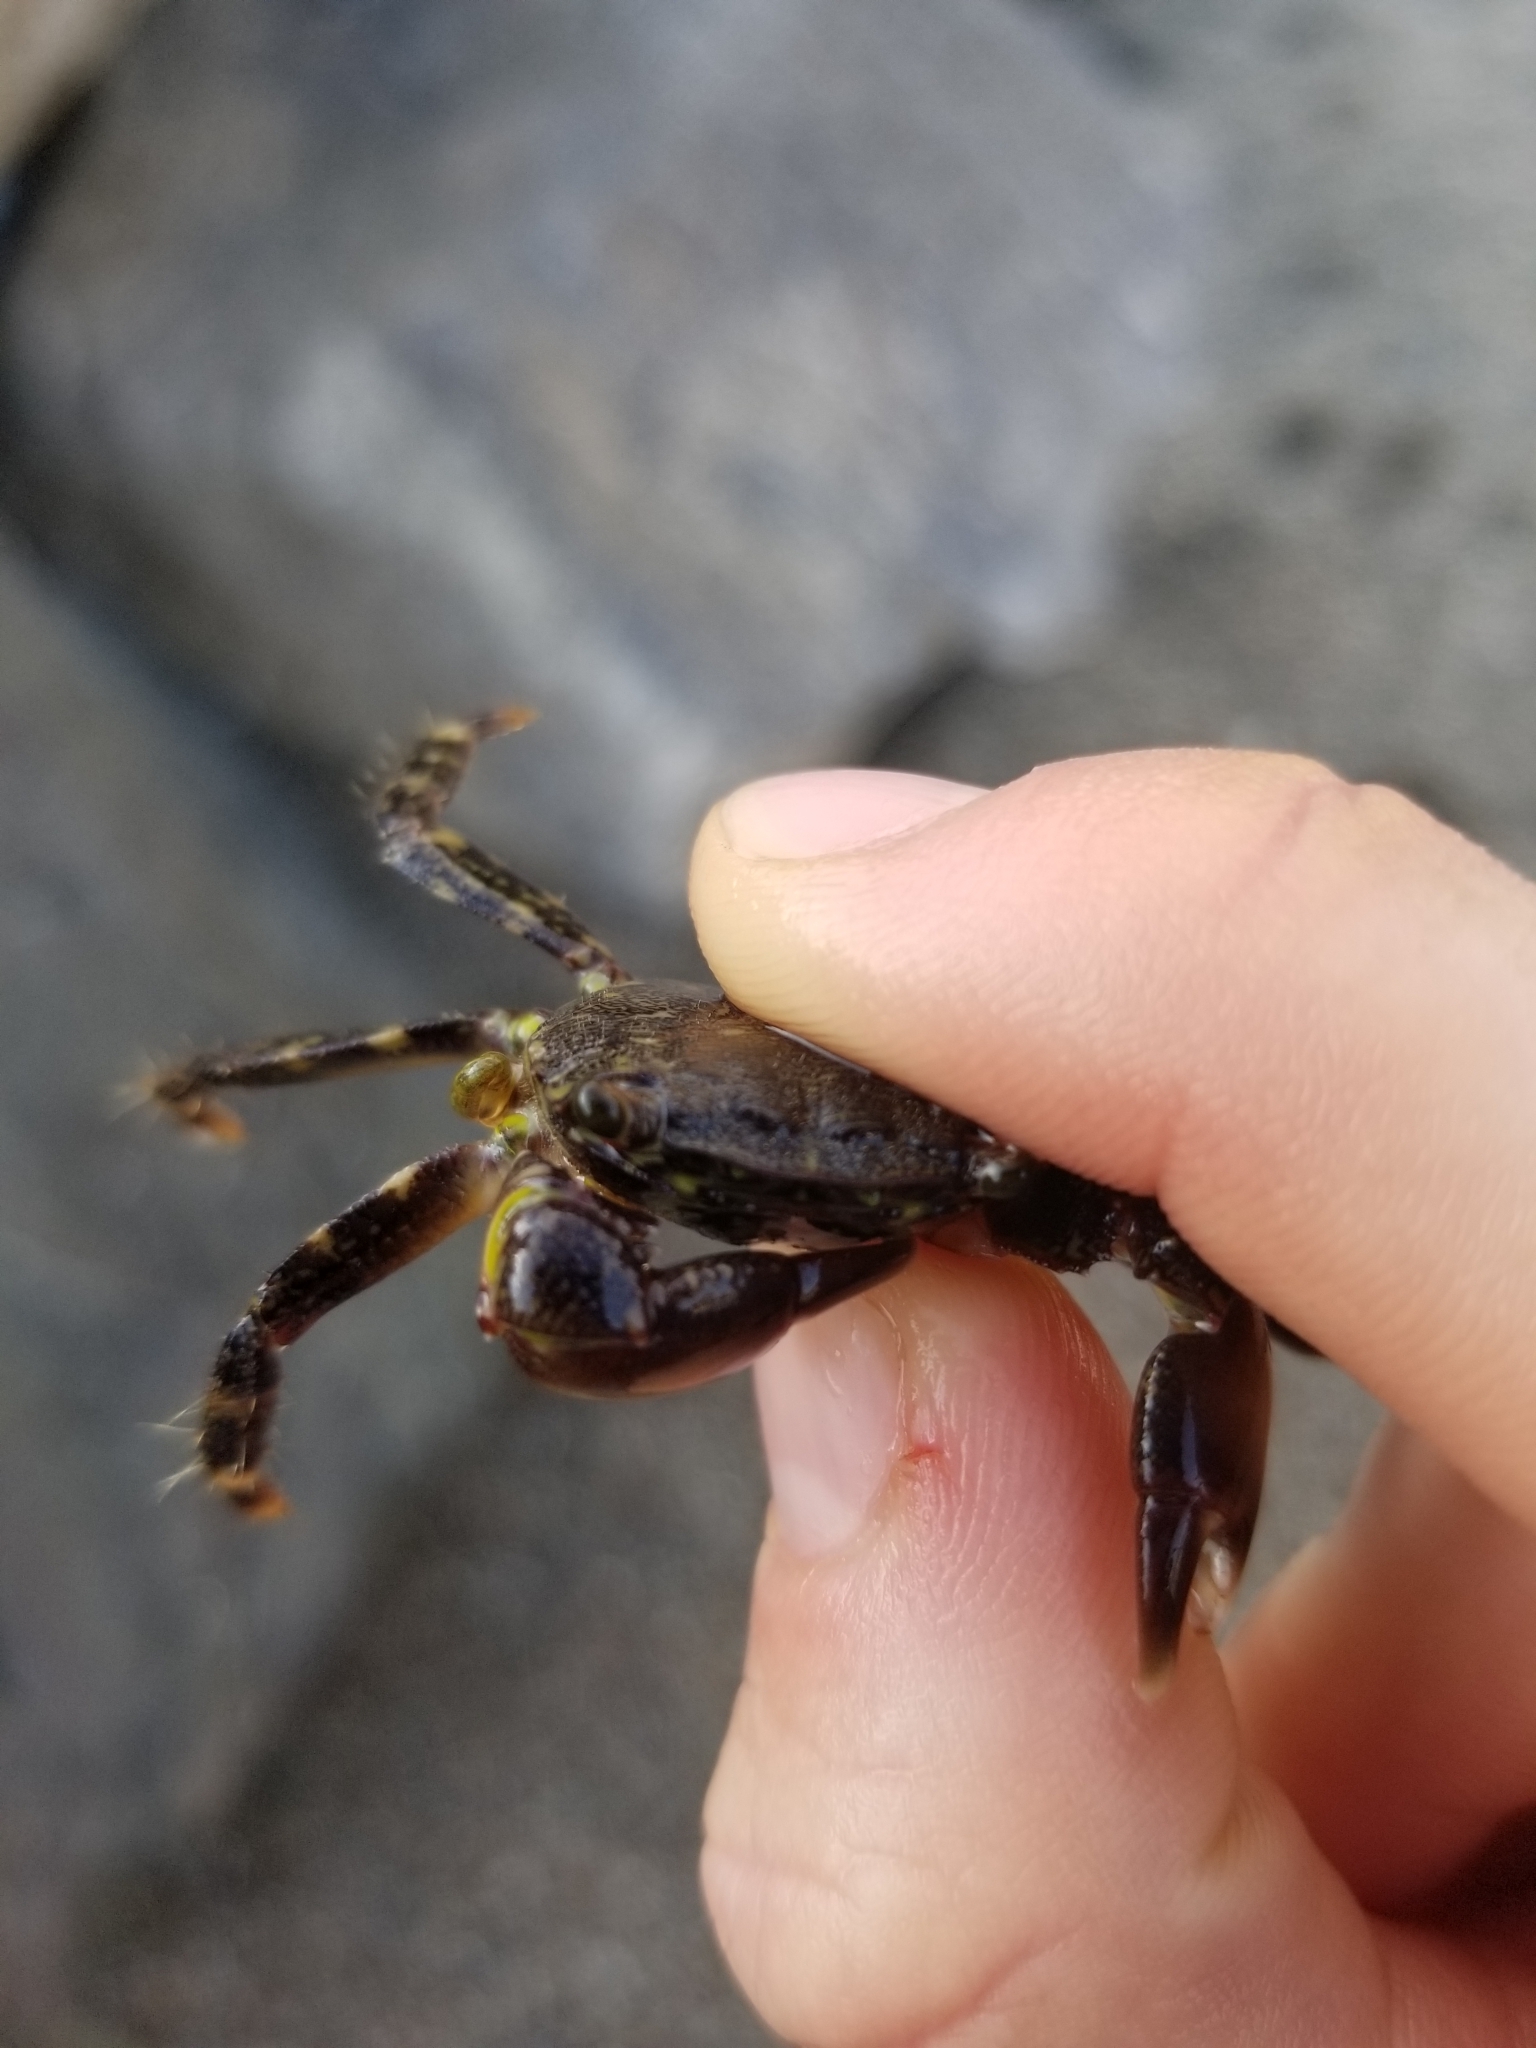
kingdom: Animalia
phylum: Arthropoda
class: Malacostraca
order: Decapoda
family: Grapsidae
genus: Pachygrapsus
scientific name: Pachygrapsus marmoratus
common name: Marbled rock crab
